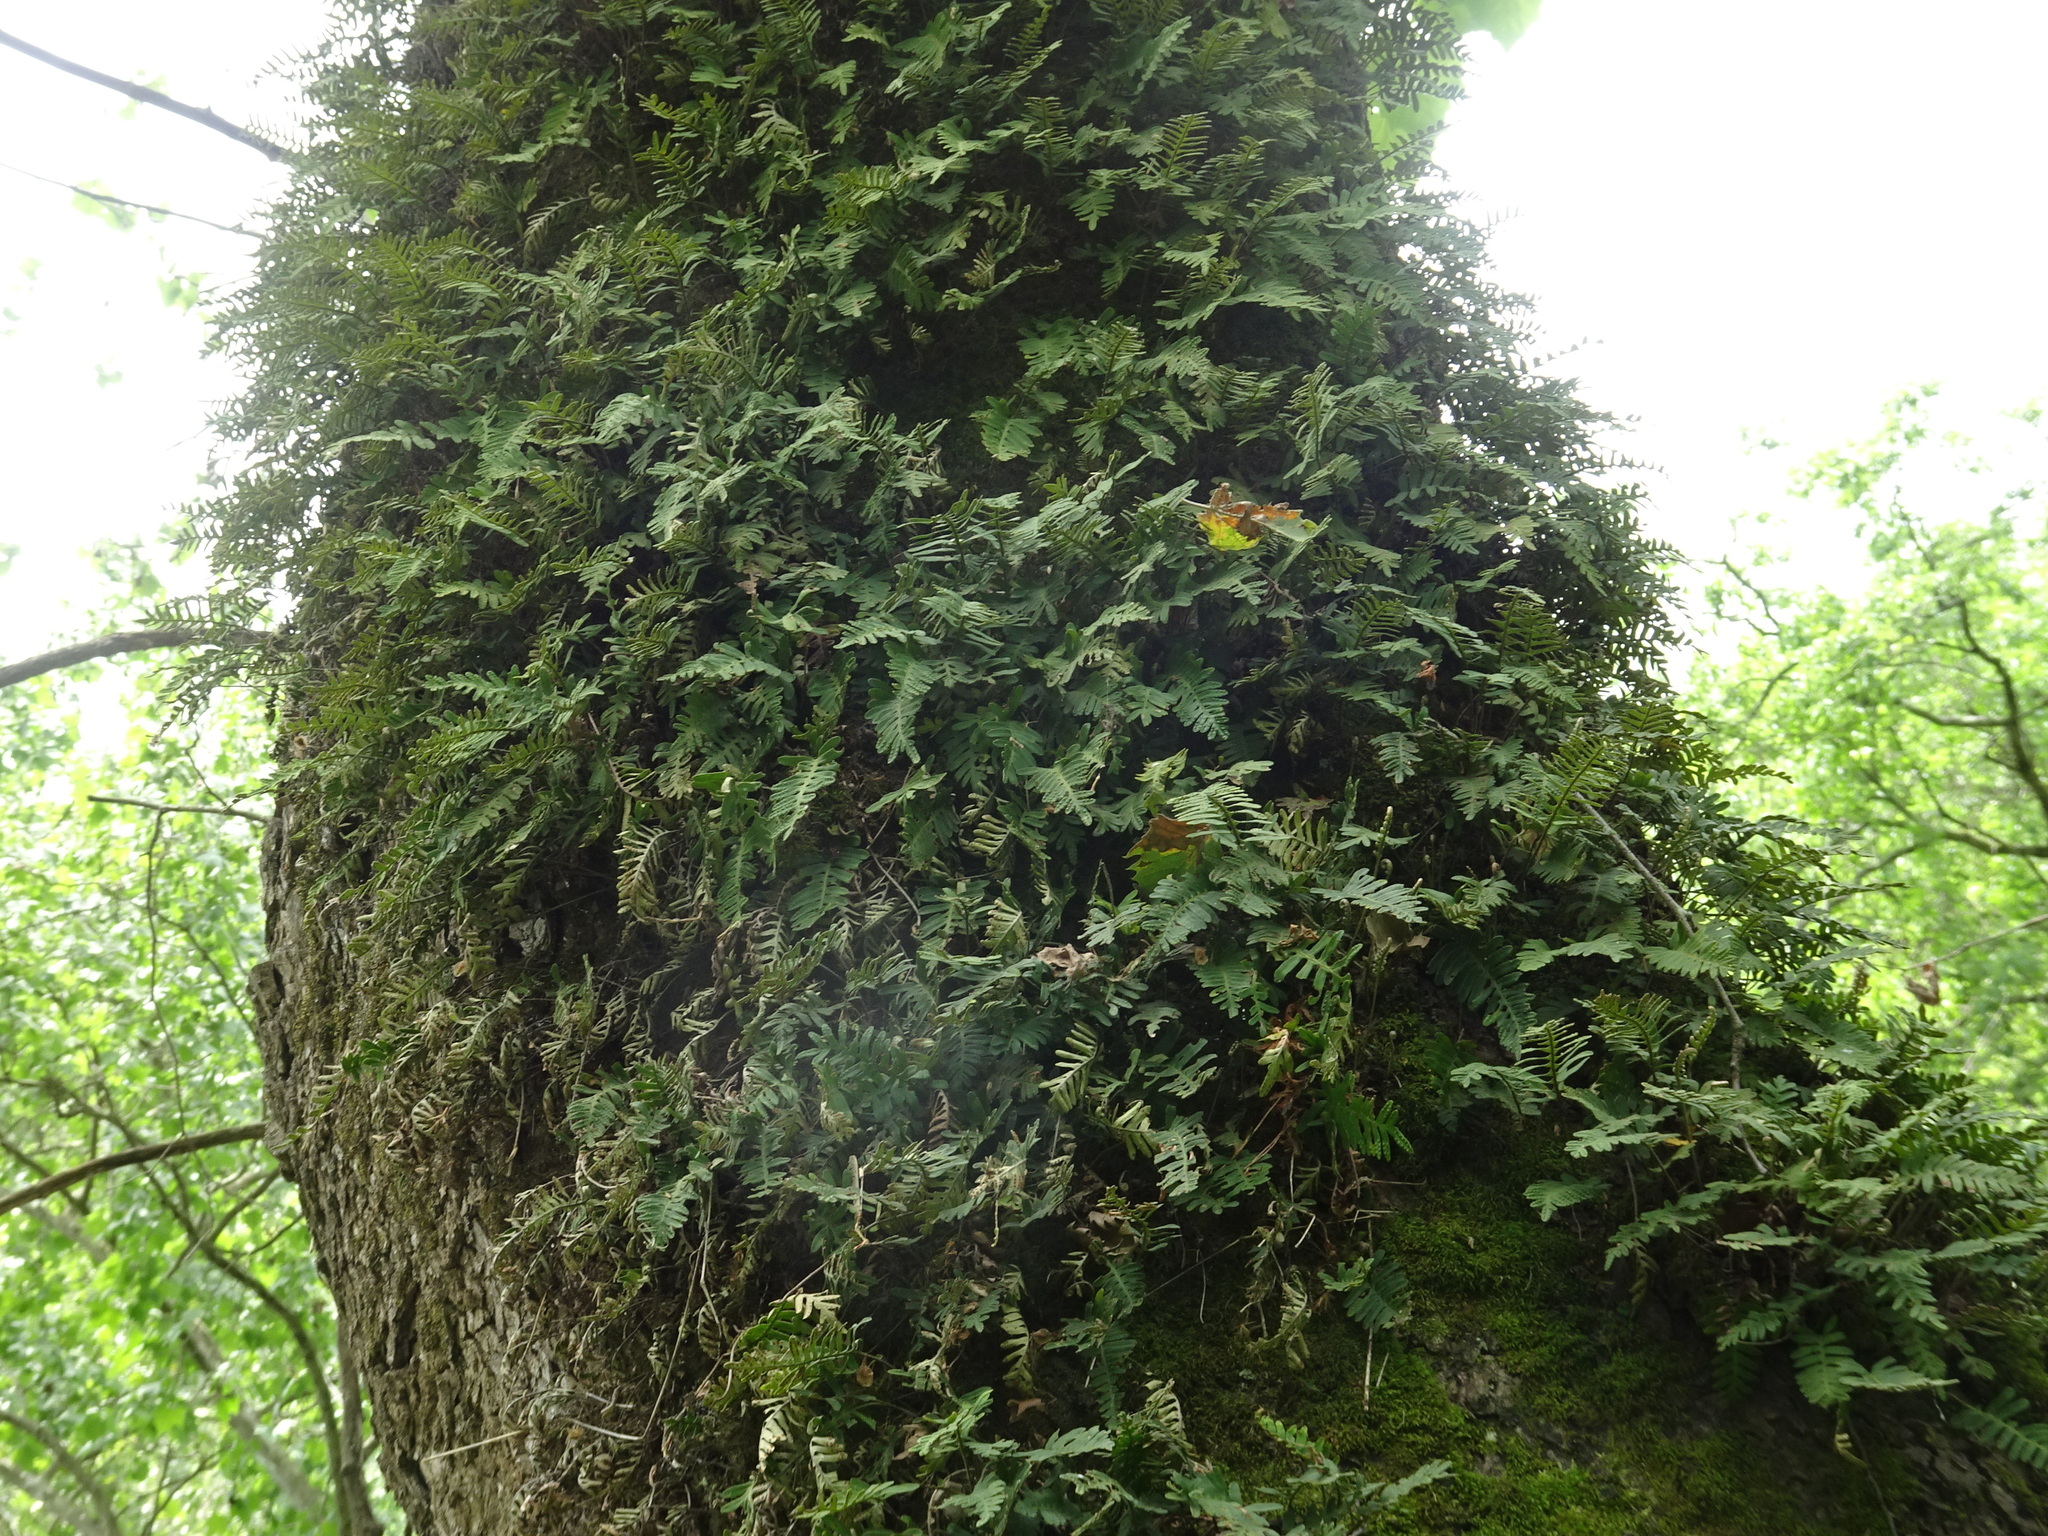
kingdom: Plantae
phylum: Tracheophyta
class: Polypodiopsida
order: Polypodiales
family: Polypodiaceae
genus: Pleopeltis
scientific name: Pleopeltis michauxiana
